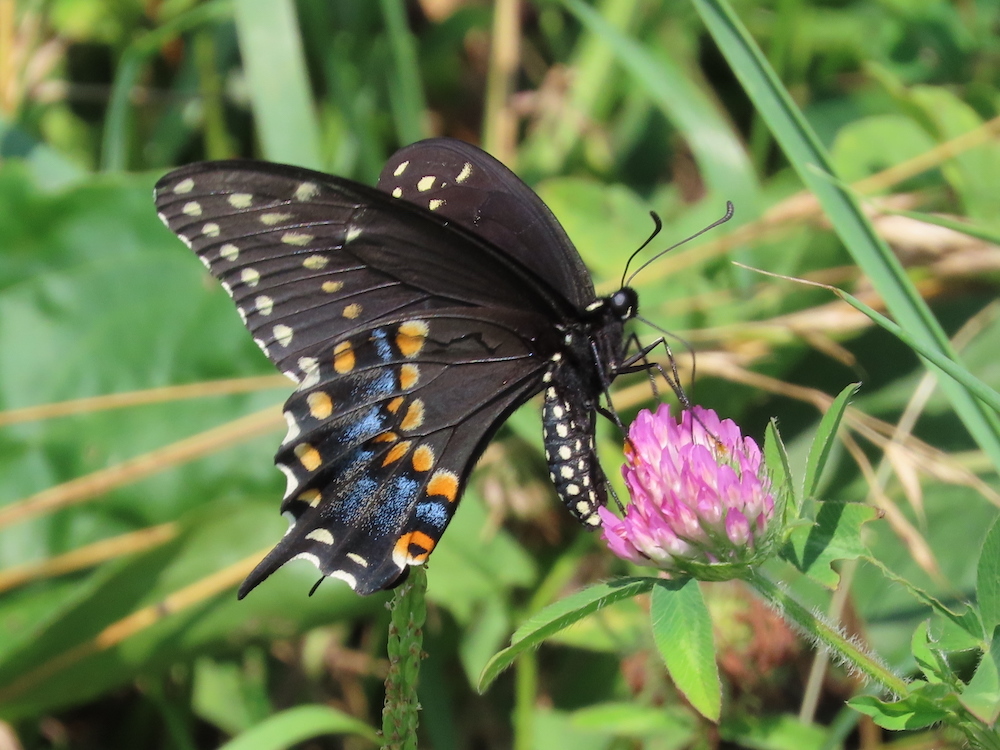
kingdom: Animalia
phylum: Arthropoda
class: Insecta
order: Lepidoptera
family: Papilionidae
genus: Papilio
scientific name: Papilio polyxenes
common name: Black swallowtail
